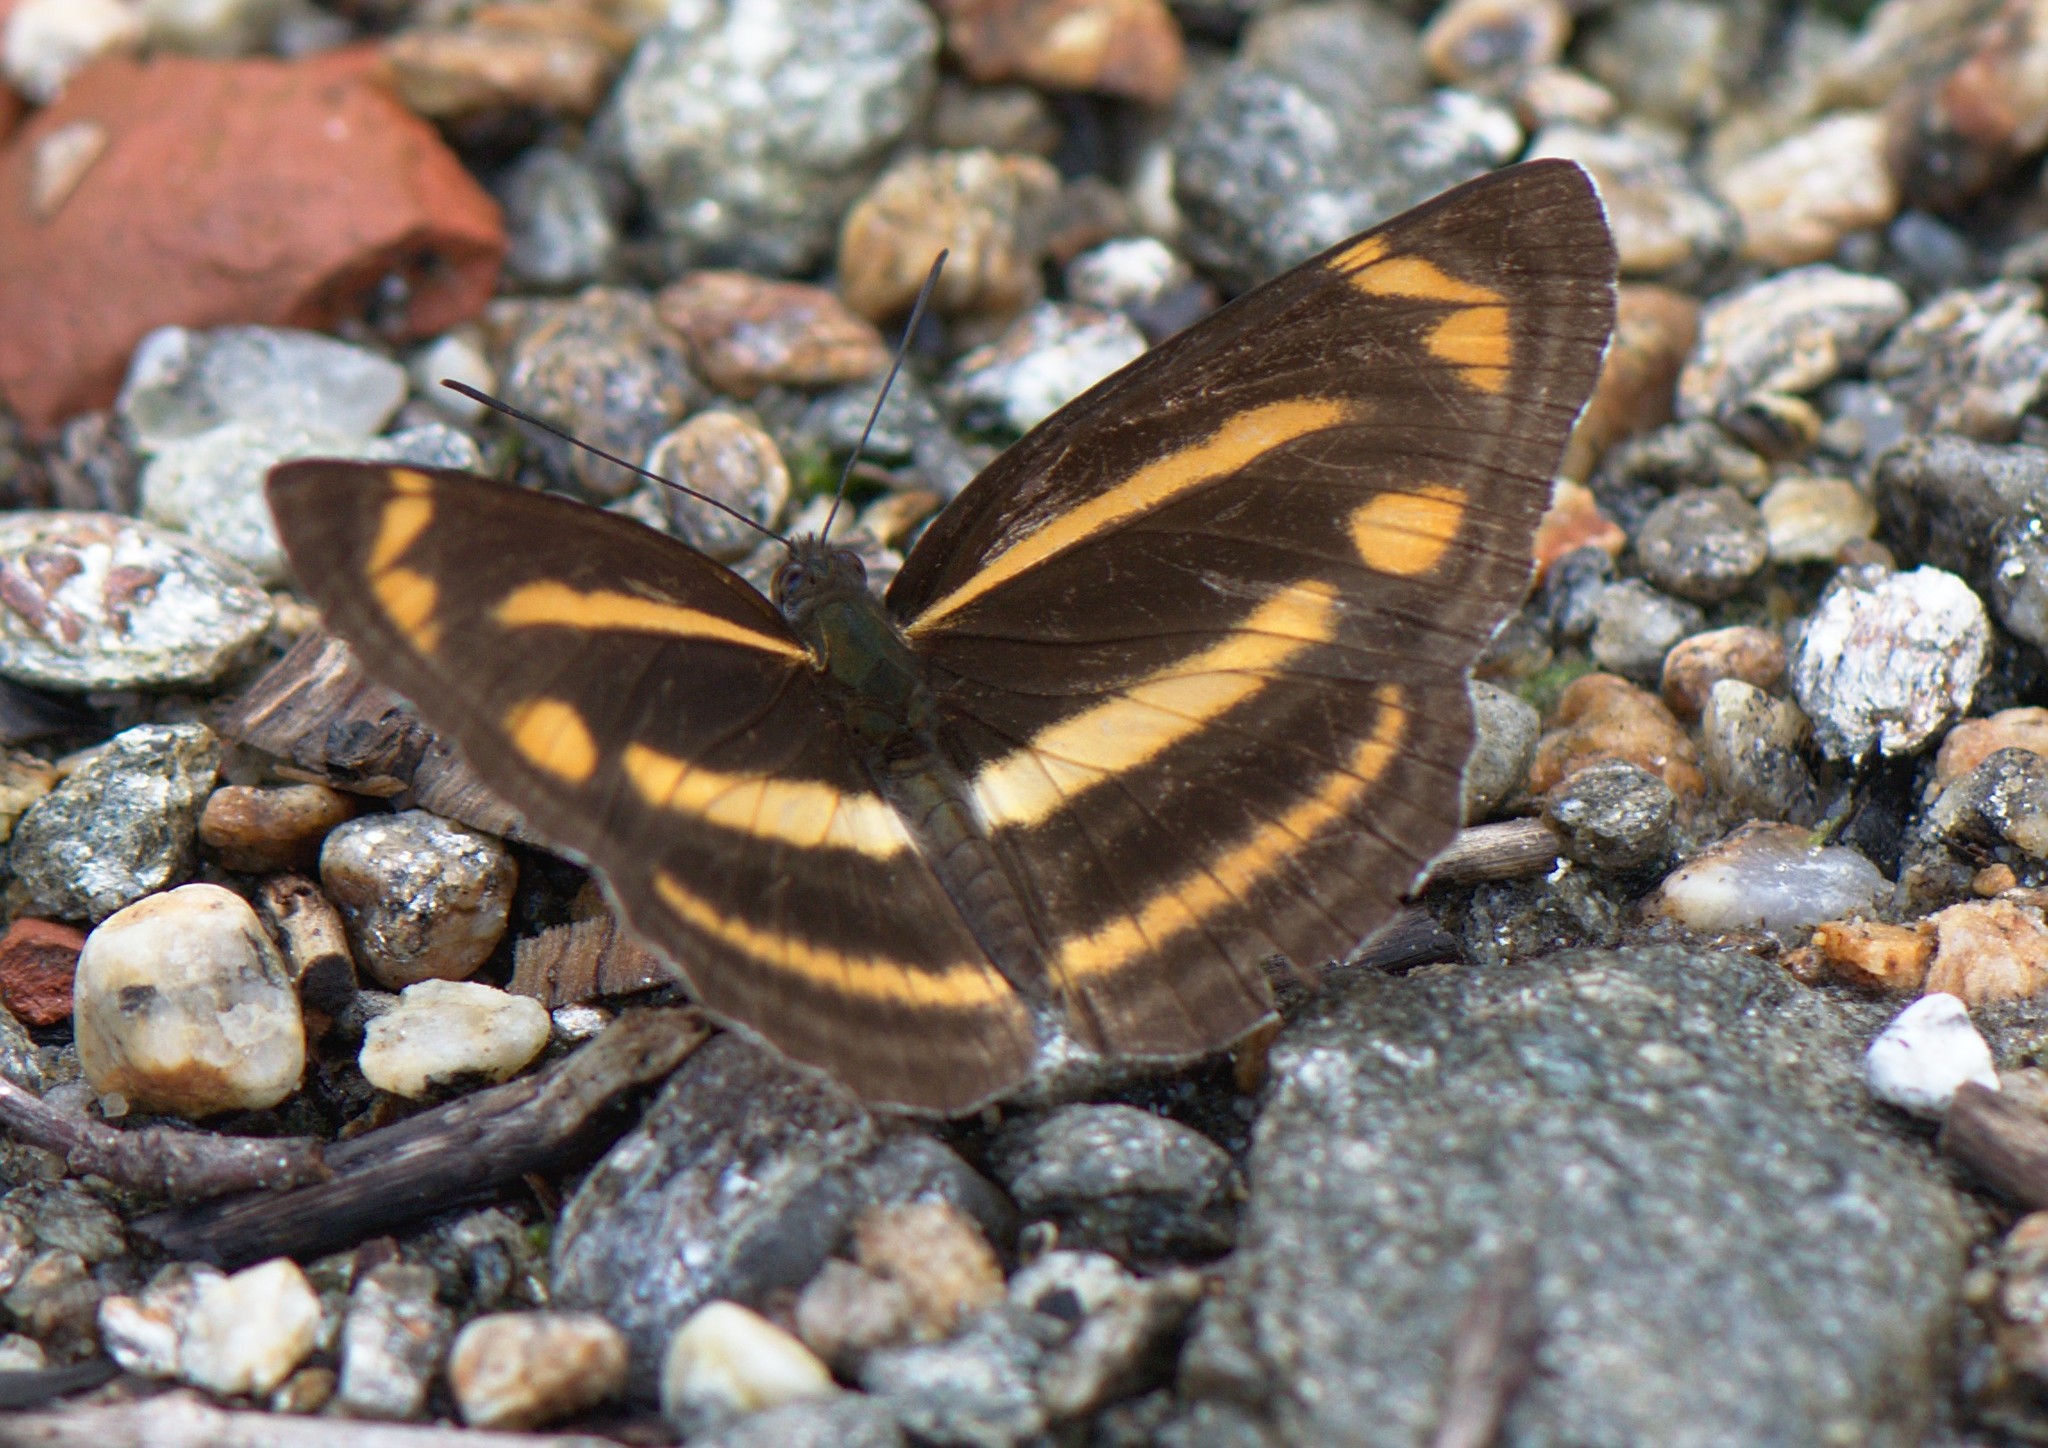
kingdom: Animalia
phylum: Arthropoda
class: Insecta
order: Lepidoptera
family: Nymphalidae
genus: Neptis
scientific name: Neptis ananta
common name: Yellow sailer
